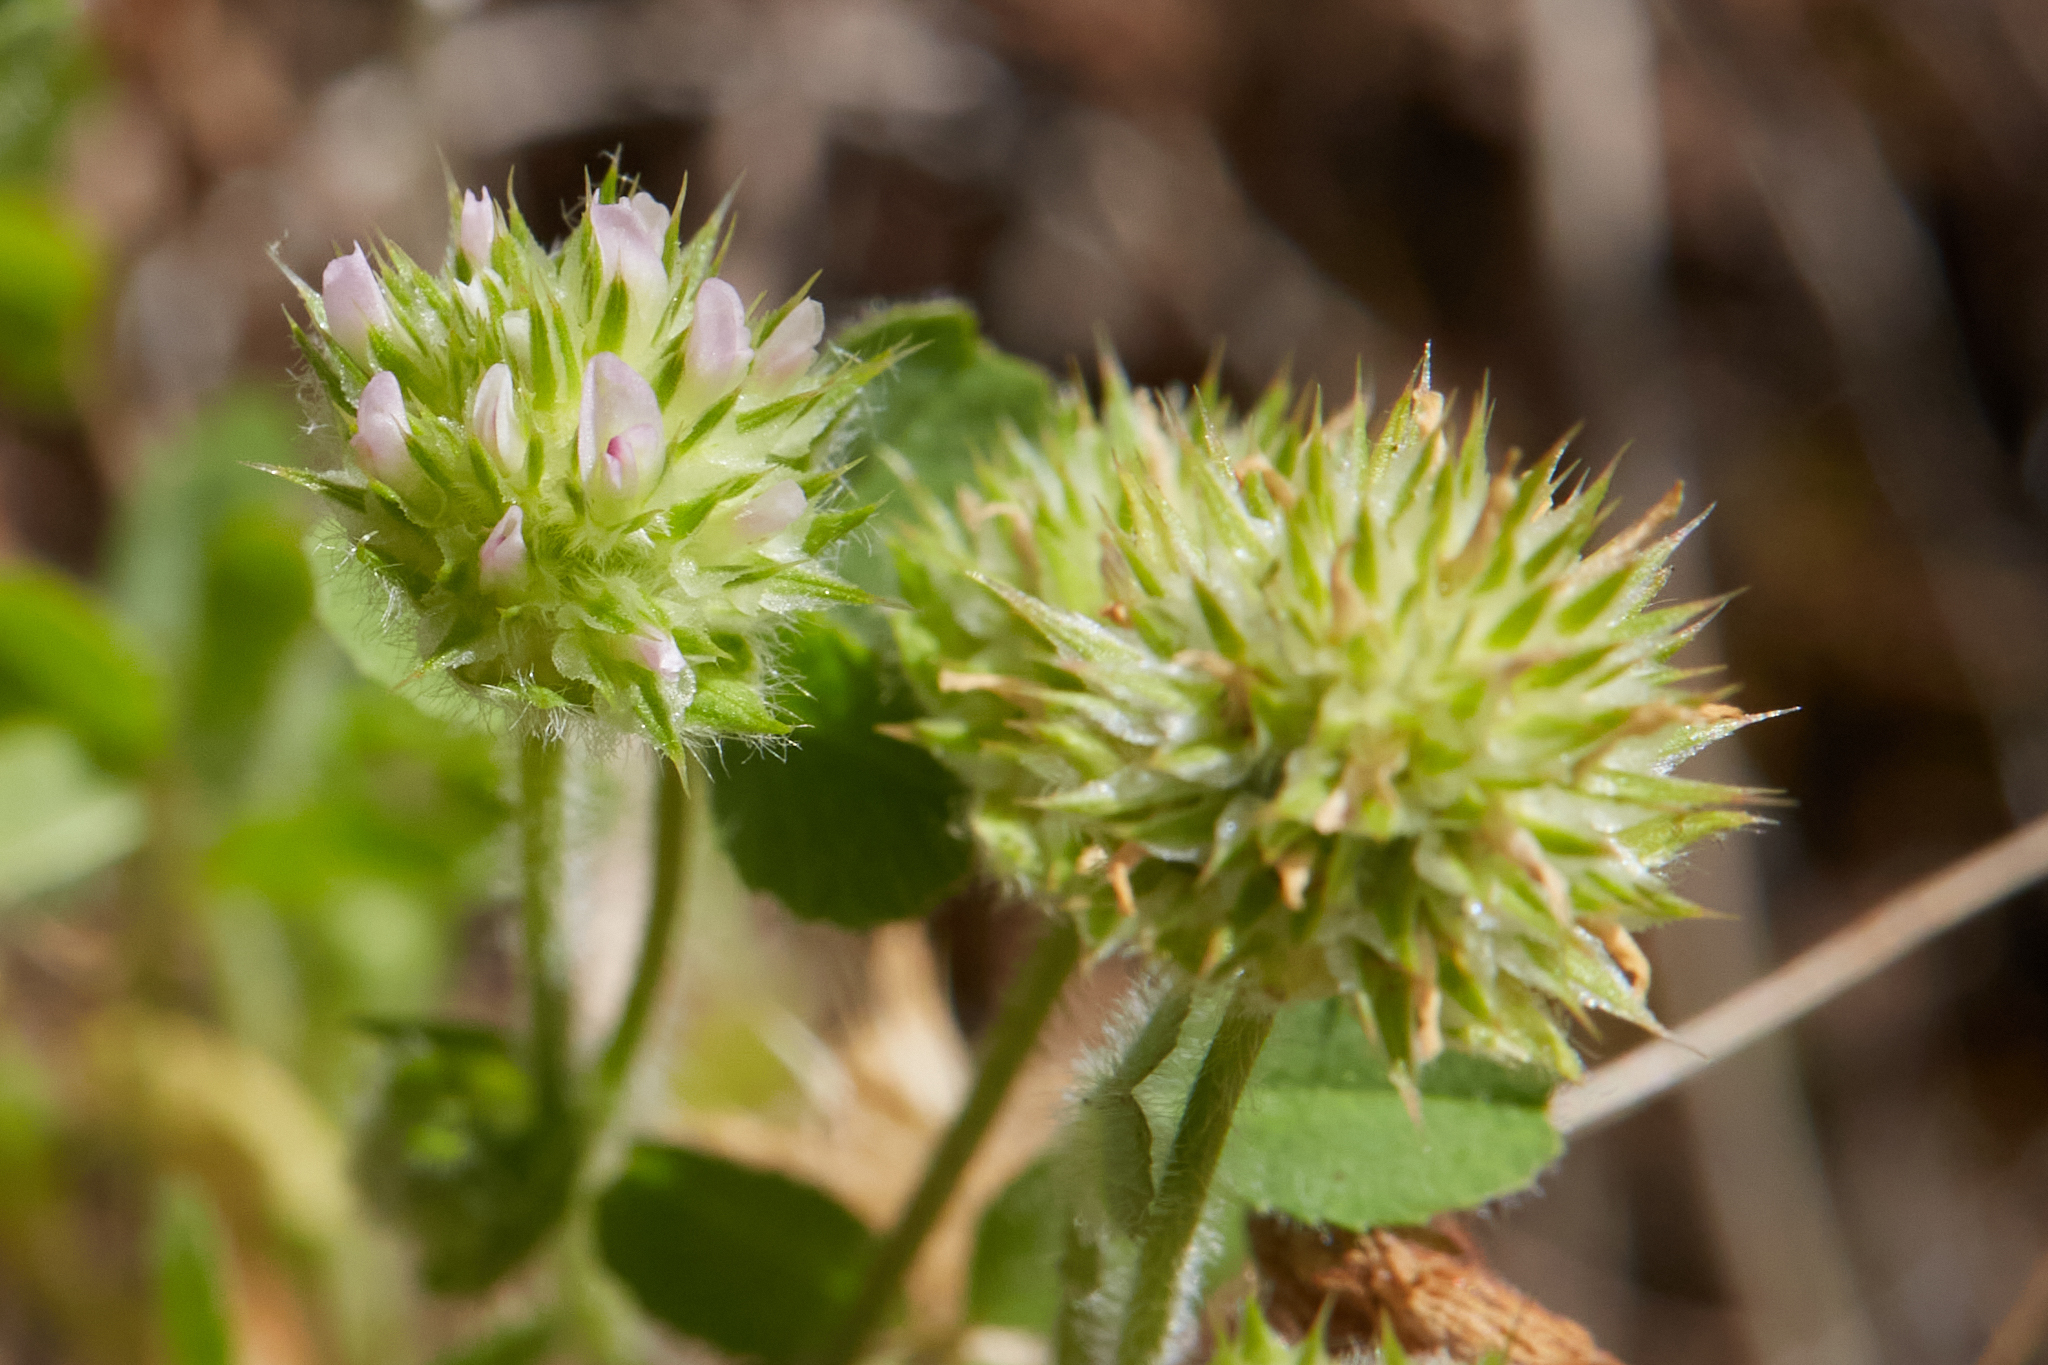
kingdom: Plantae
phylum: Tracheophyta
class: Magnoliopsida
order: Fabales
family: Fabaceae
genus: Trifolium
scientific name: Trifolium microcephalum
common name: Maiden clover
